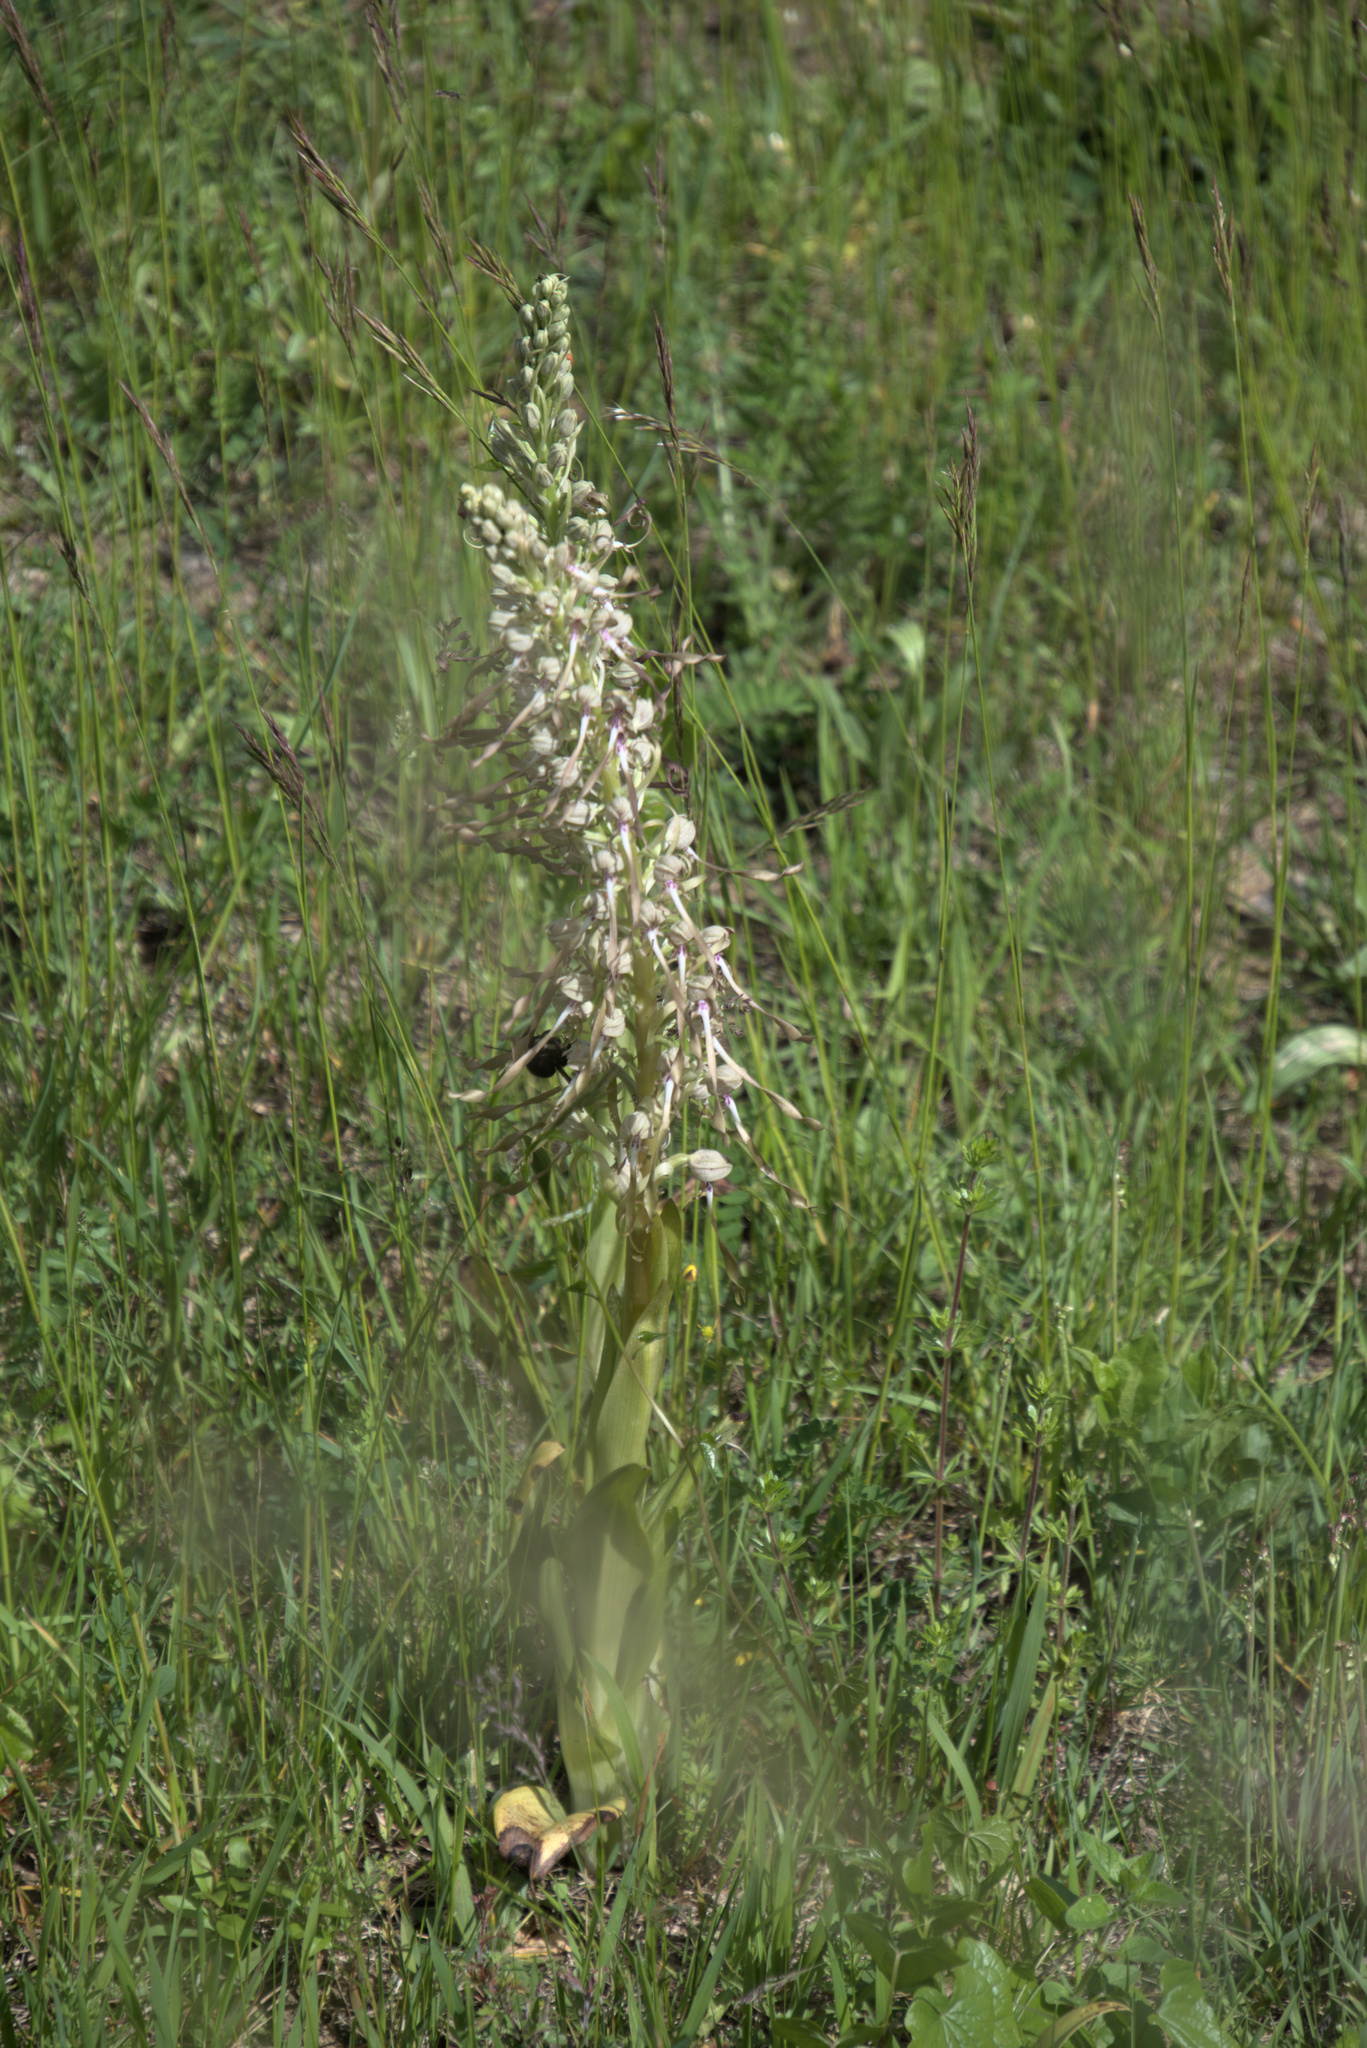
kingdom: Plantae
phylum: Tracheophyta
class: Liliopsida
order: Asparagales
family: Orchidaceae
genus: Himantoglossum
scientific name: Himantoglossum hircinum
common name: Lizard orchid
